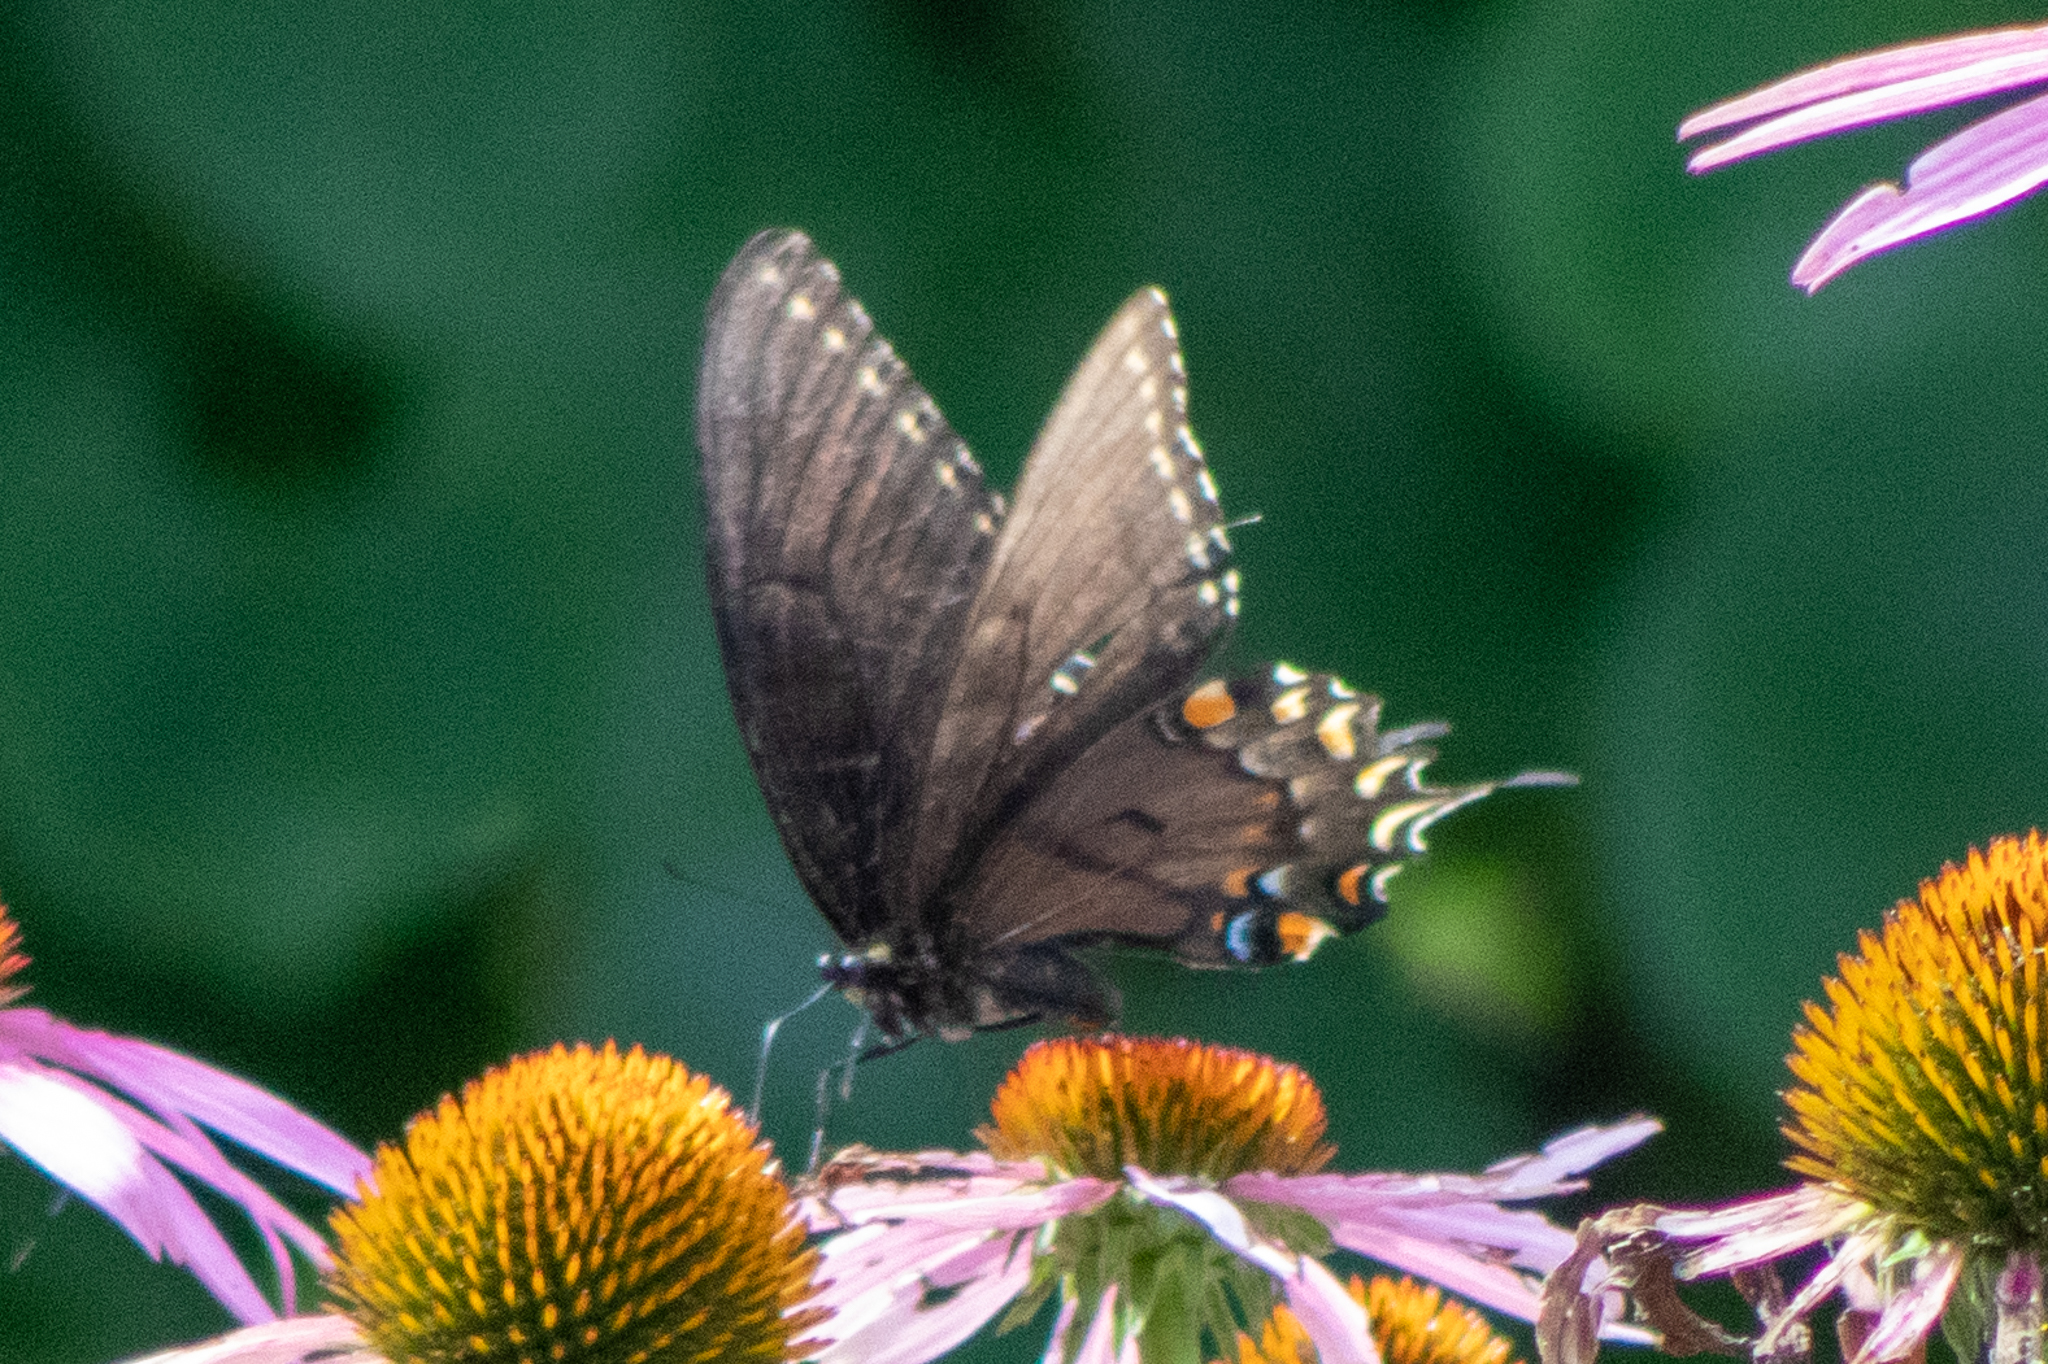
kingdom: Animalia
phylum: Arthropoda
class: Insecta
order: Lepidoptera
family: Papilionidae
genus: Papilio
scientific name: Papilio glaucus
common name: Tiger swallowtail
